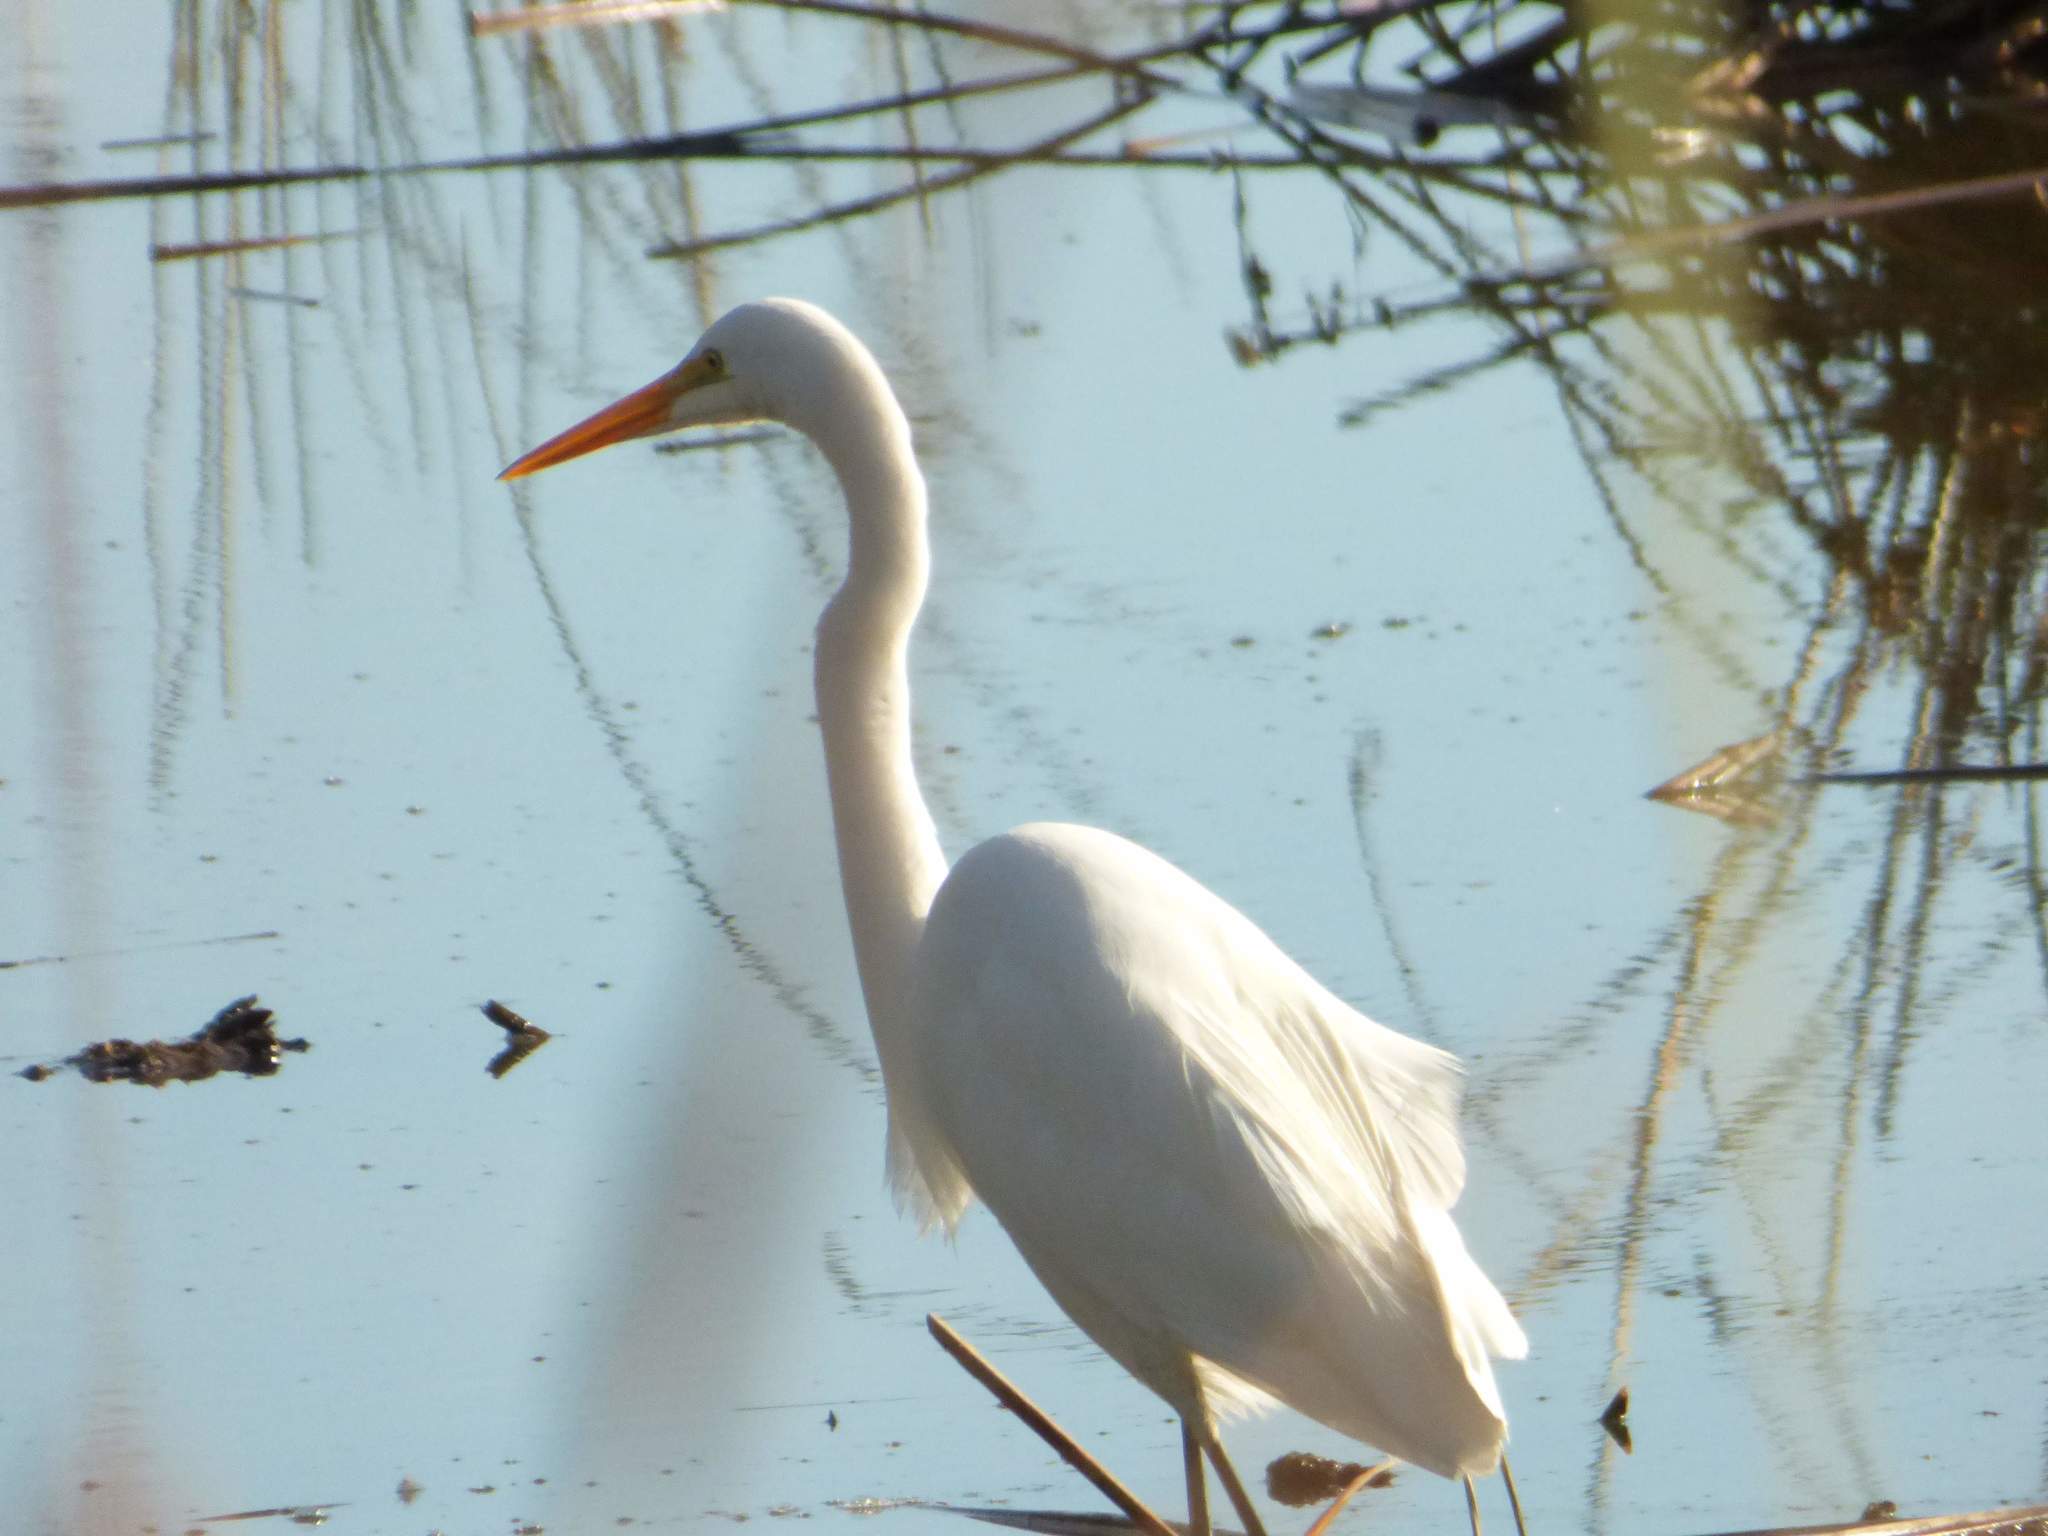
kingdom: Animalia
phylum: Chordata
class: Aves
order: Pelecaniformes
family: Ardeidae
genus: Ardea
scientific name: Ardea alba
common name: Great egret
